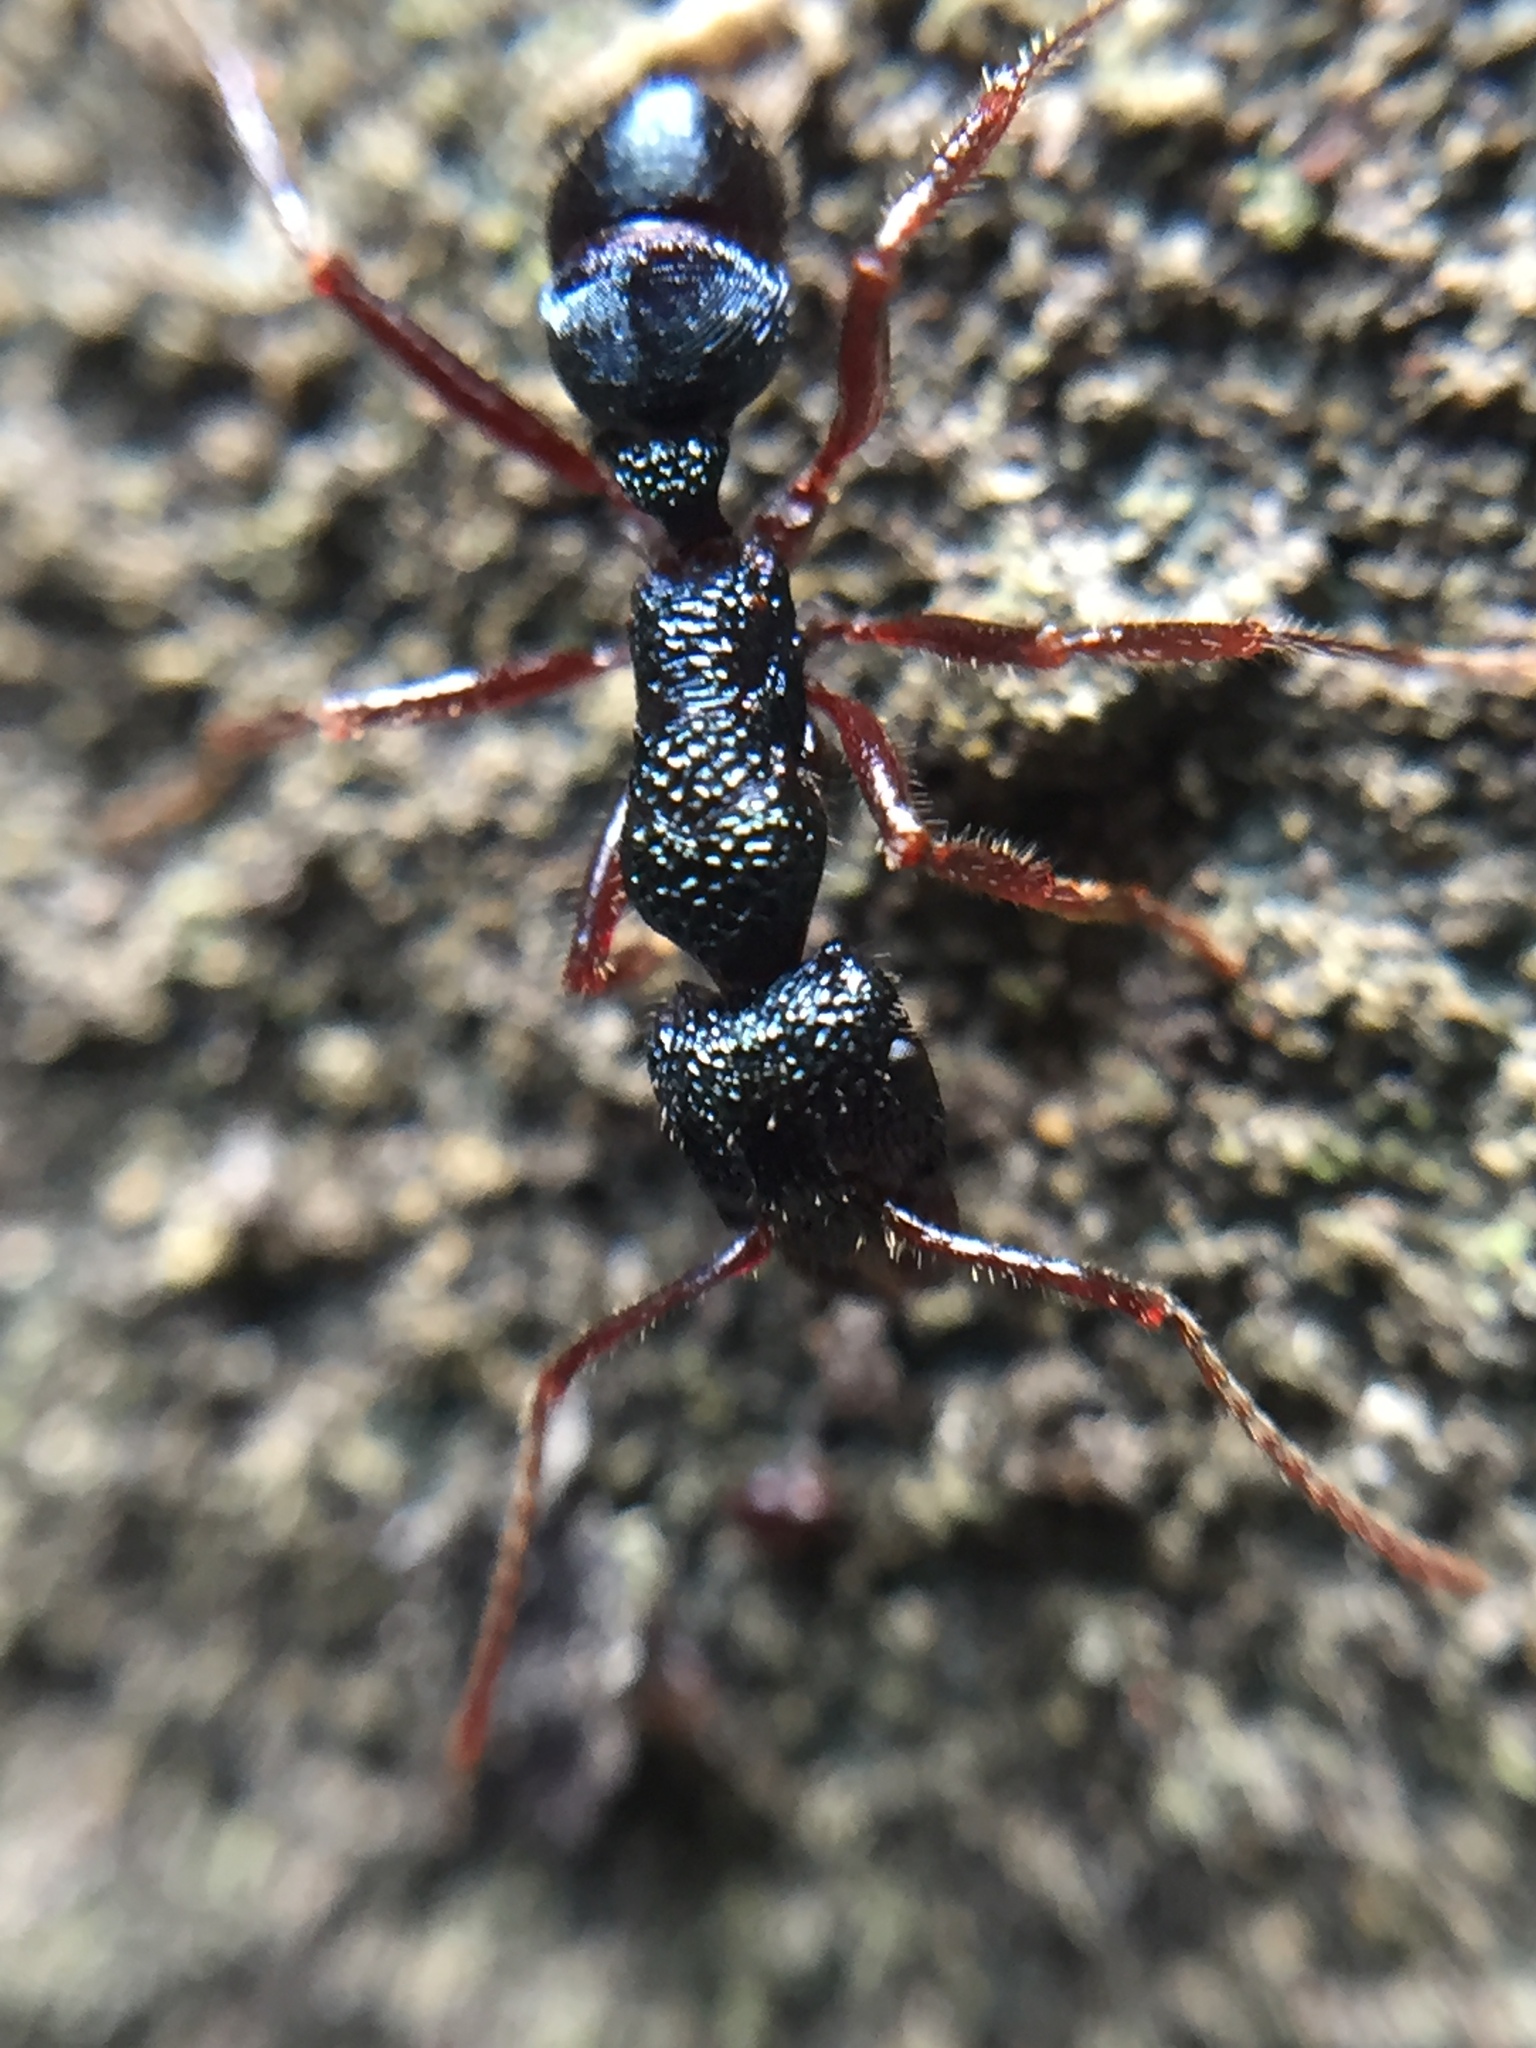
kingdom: Animalia
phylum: Arthropoda
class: Insecta
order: Hymenoptera
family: Formicidae
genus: Rhytidoponera
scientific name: Rhytidoponera chalybaea
